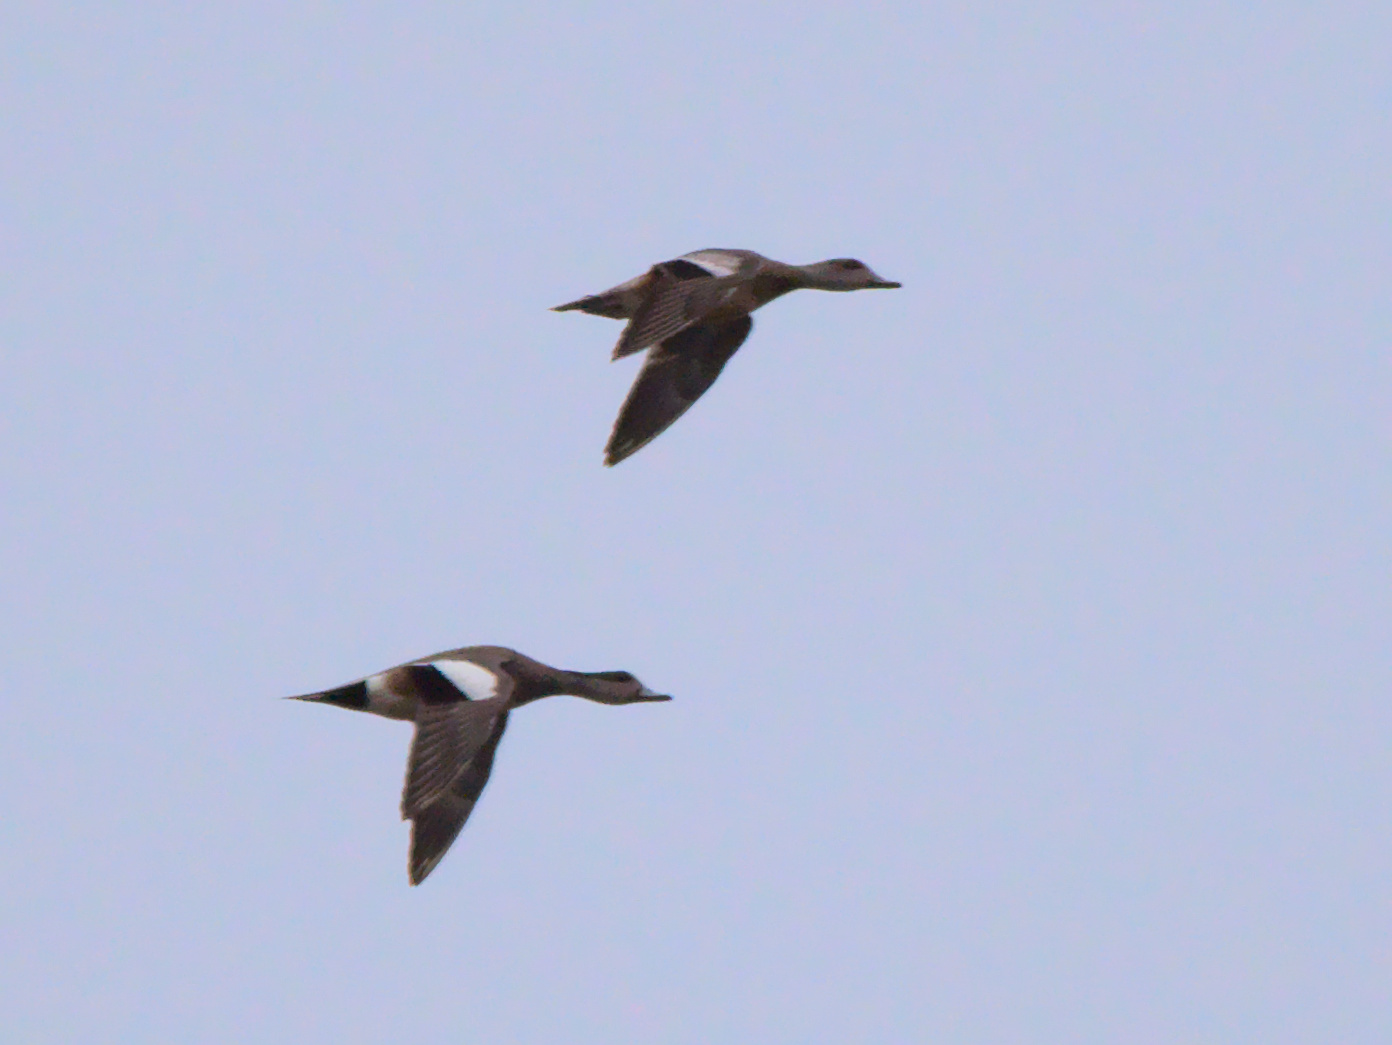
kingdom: Animalia
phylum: Chordata
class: Aves
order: Anseriformes
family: Anatidae
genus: Mareca
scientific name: Mareca americana
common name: American wigeon
